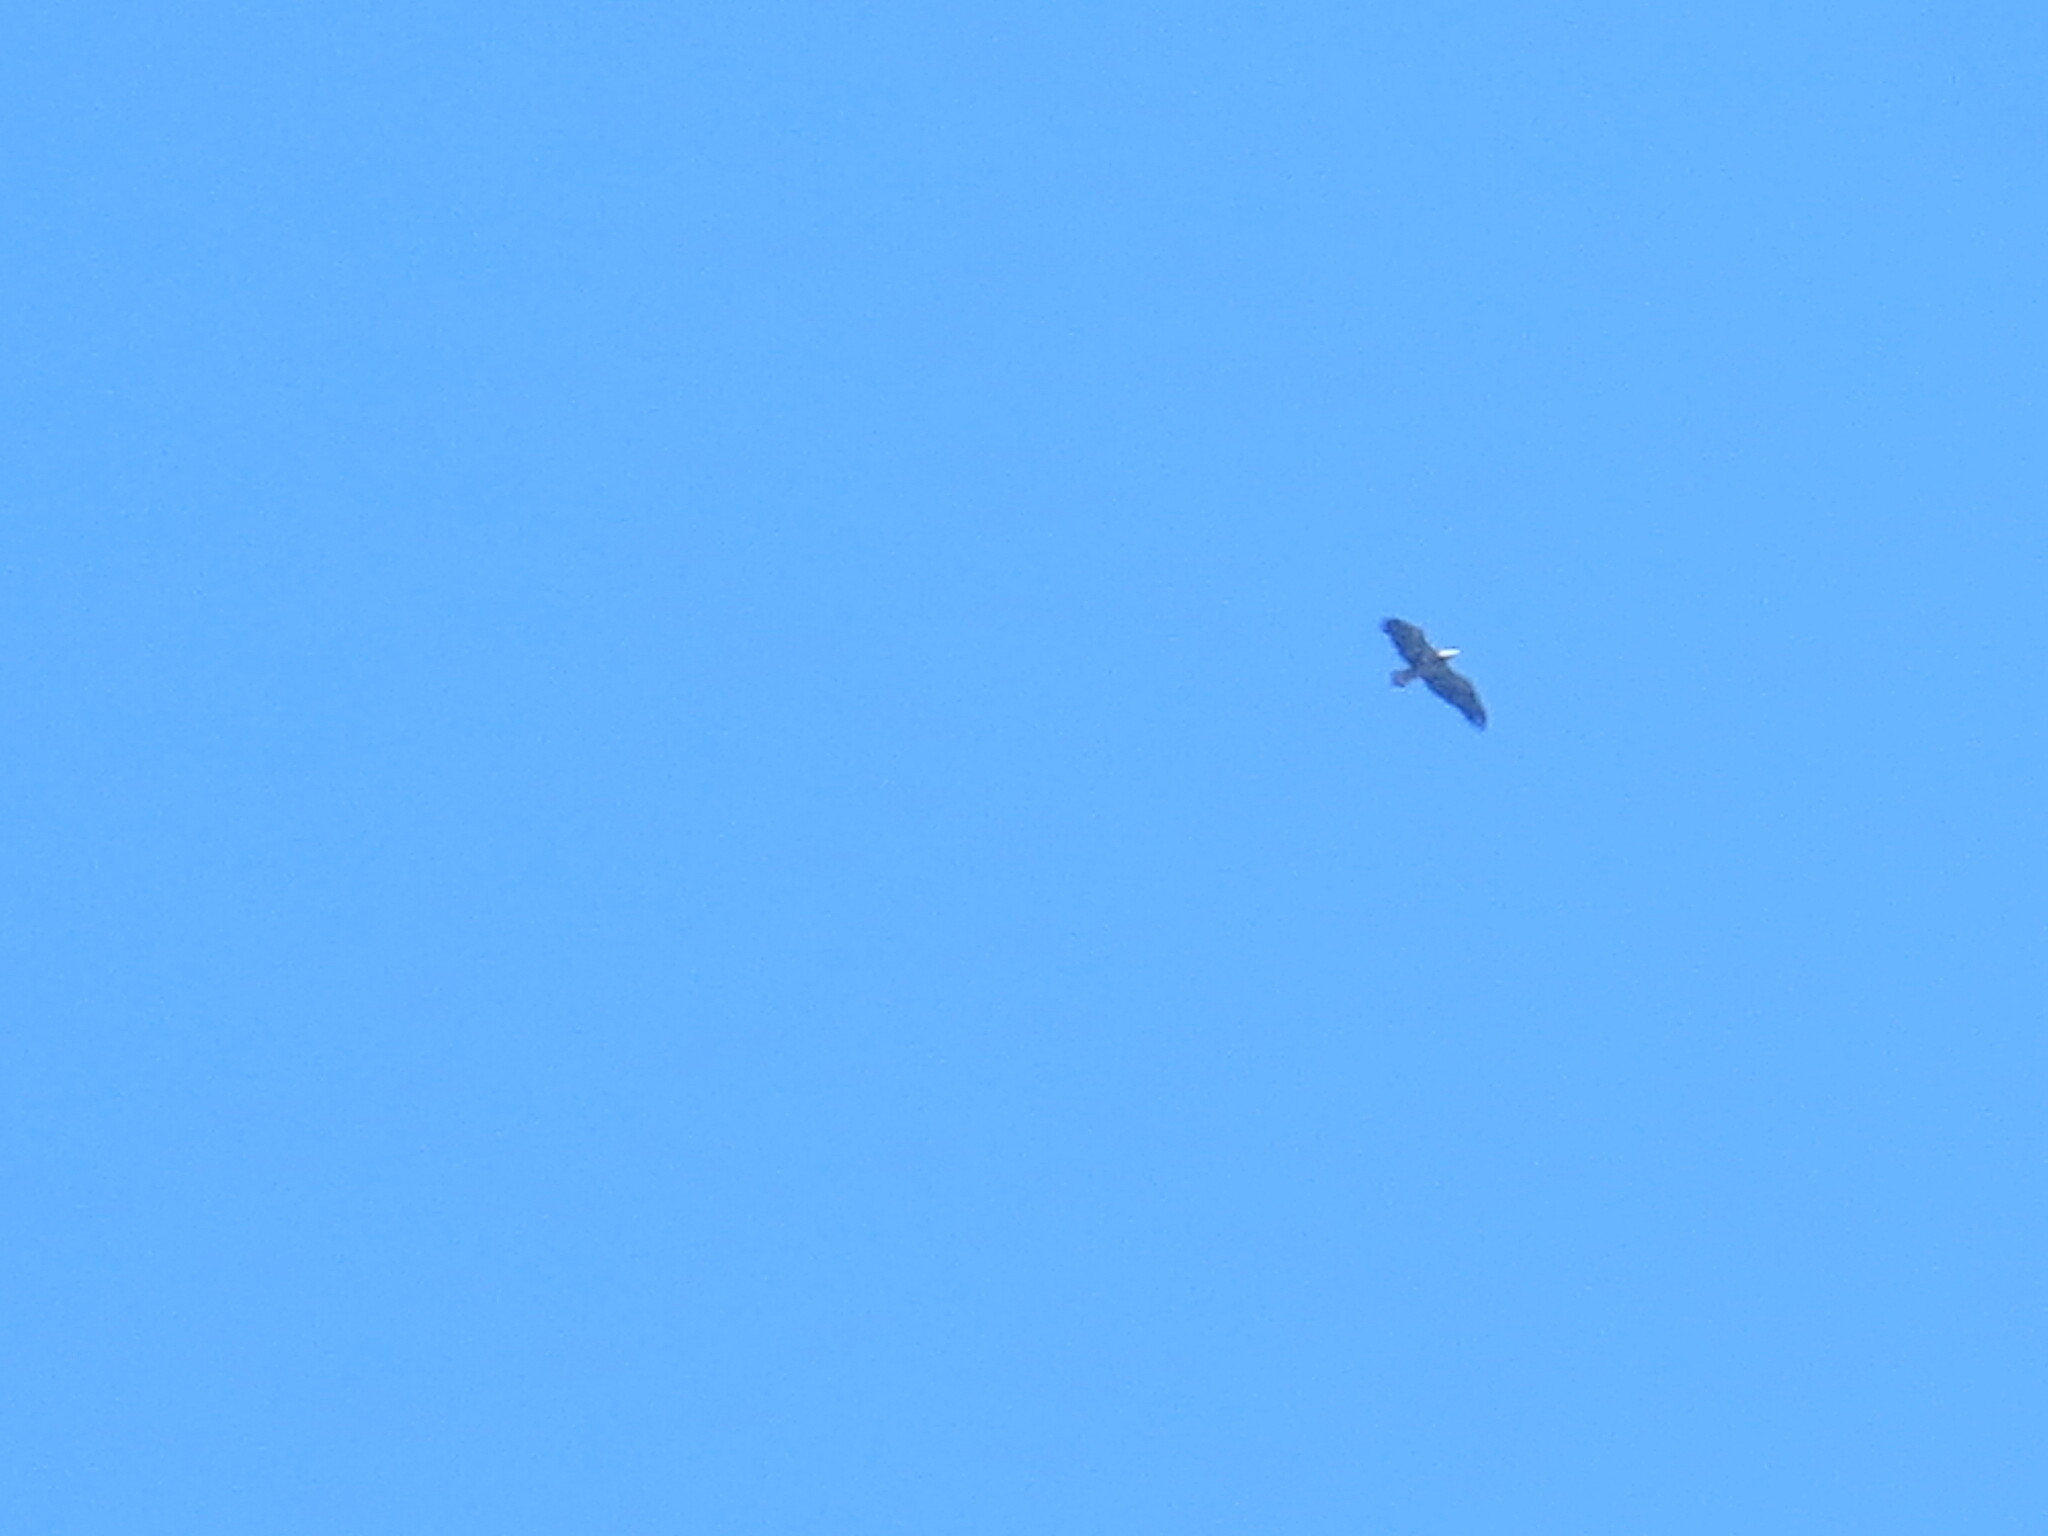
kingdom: Animalia
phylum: Chordata
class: Aves
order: Accipitriformes
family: Accipitridae
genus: Haliaeetus
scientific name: Haliaeetus leucocephalus
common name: Bald eagle
